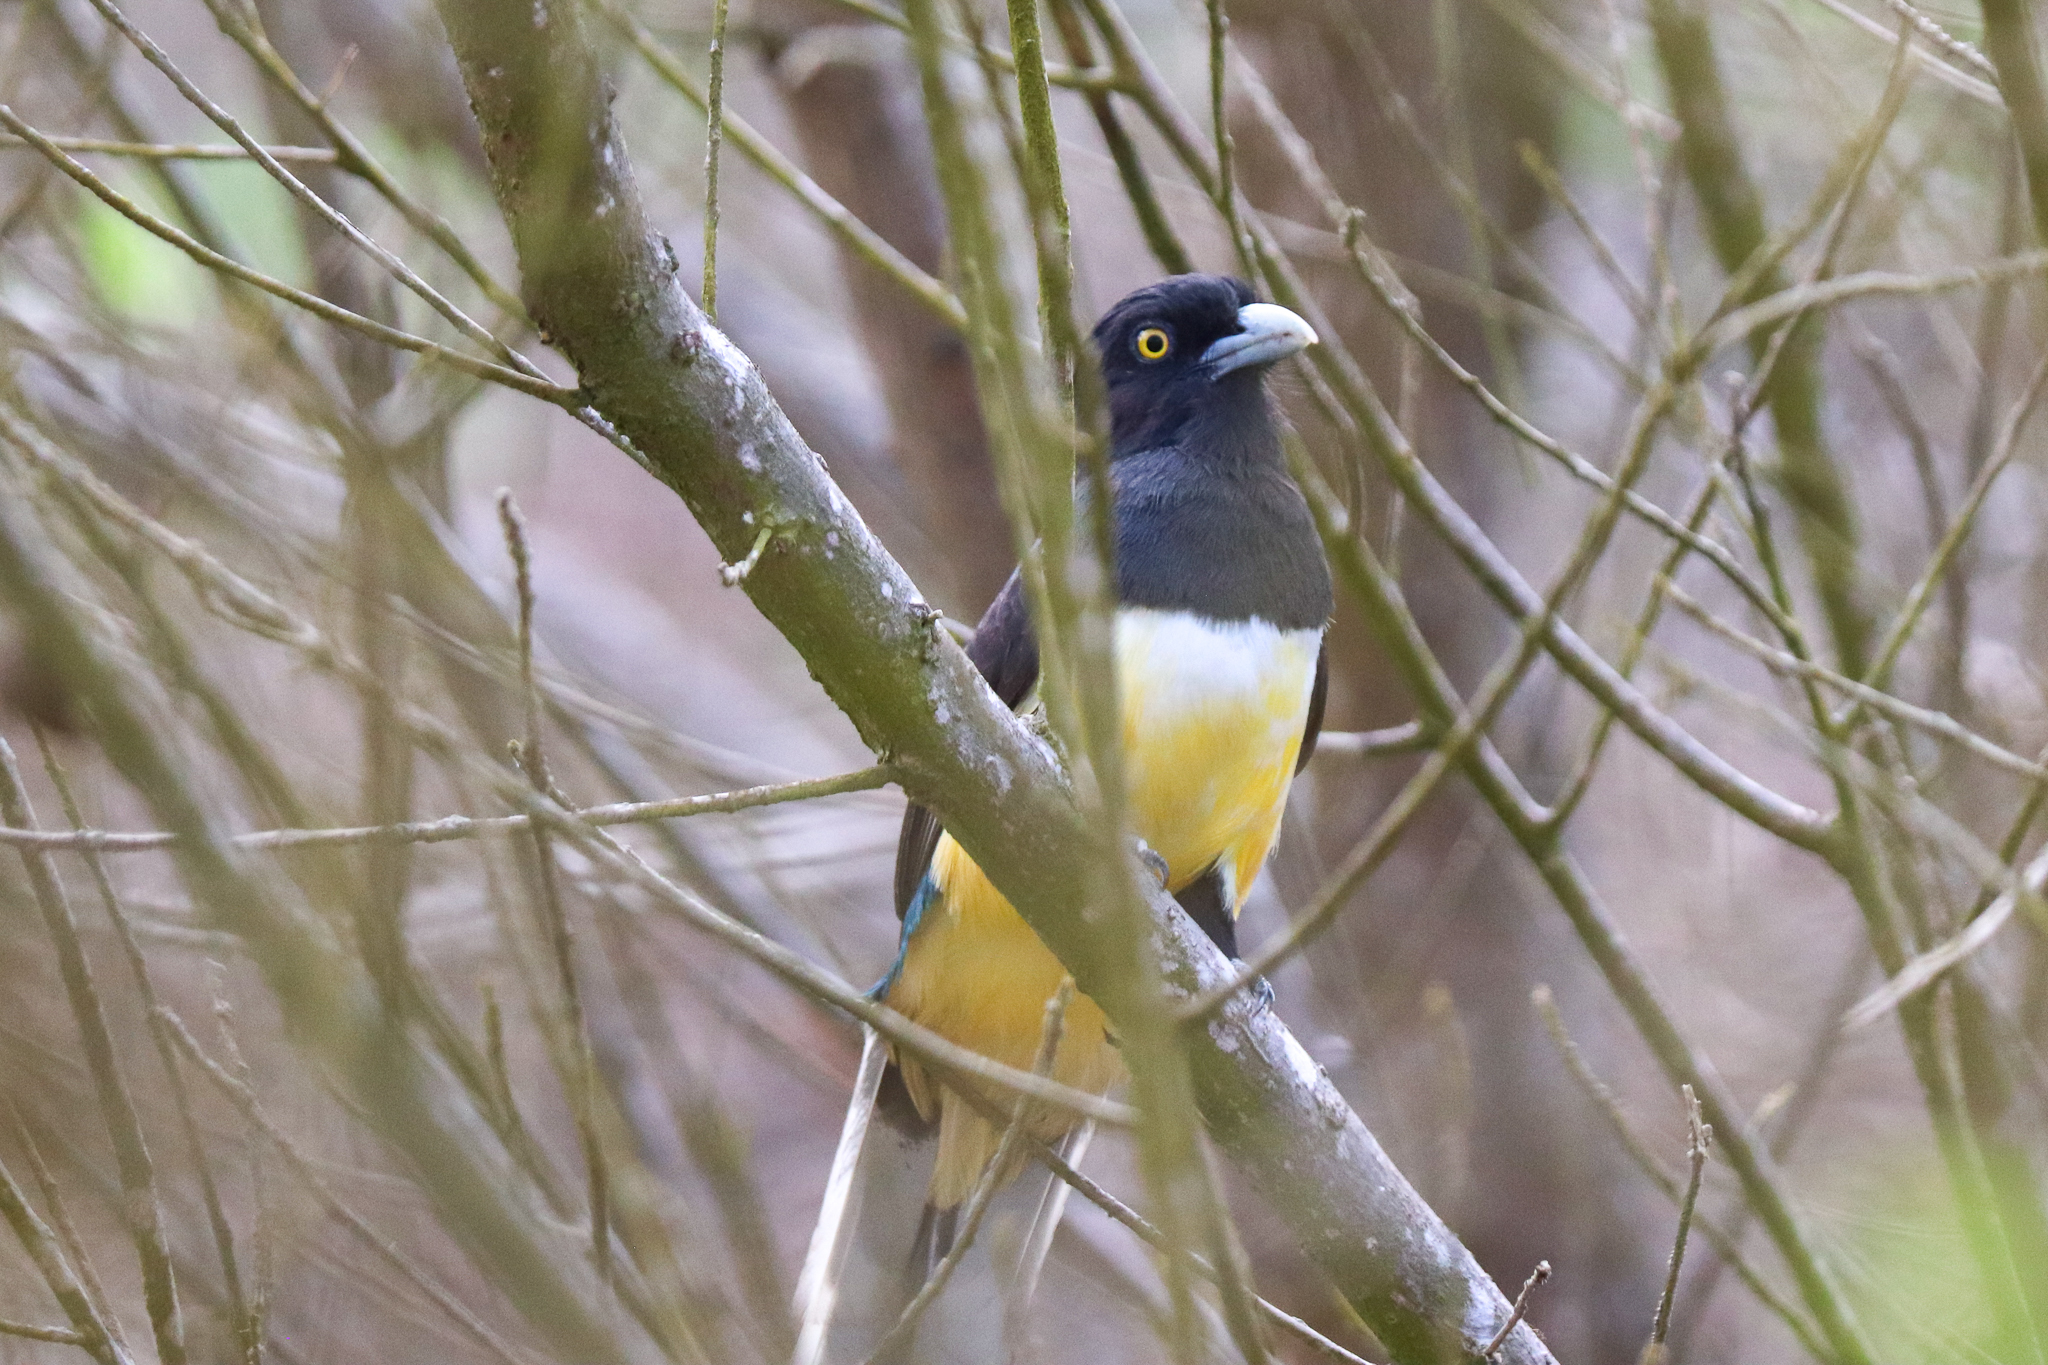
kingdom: Animalia
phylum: Chordata
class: Aves
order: Trogoniformes
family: Trogonidae
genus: Trogon
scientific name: Trogon citreolus
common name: Citreoline trogon
